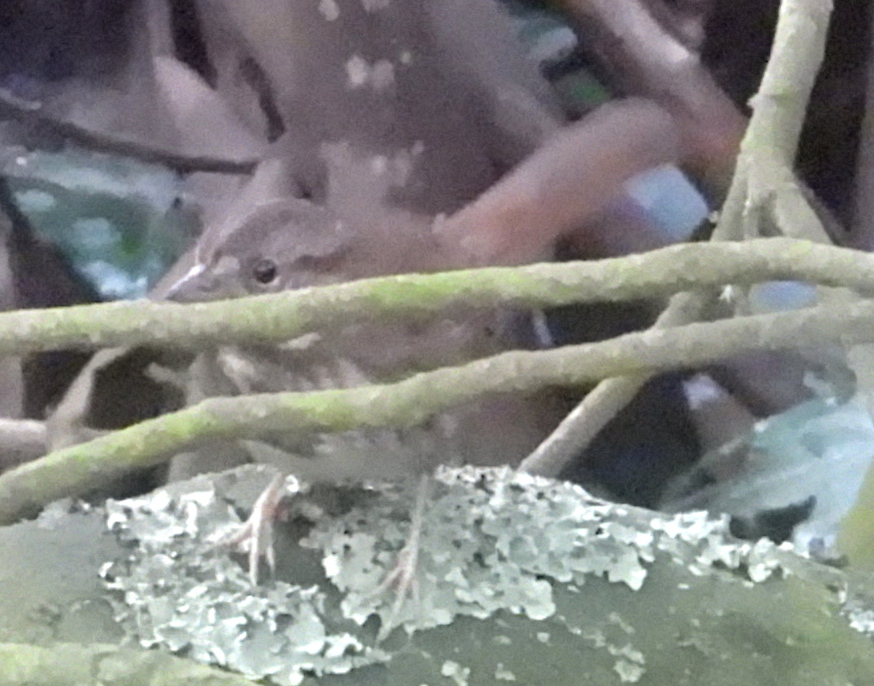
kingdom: Animalia
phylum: Chordata
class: Aves
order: Passeriformes
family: Passerellidae
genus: Melospiza
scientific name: Melospiza melodia
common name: Song sparrow
